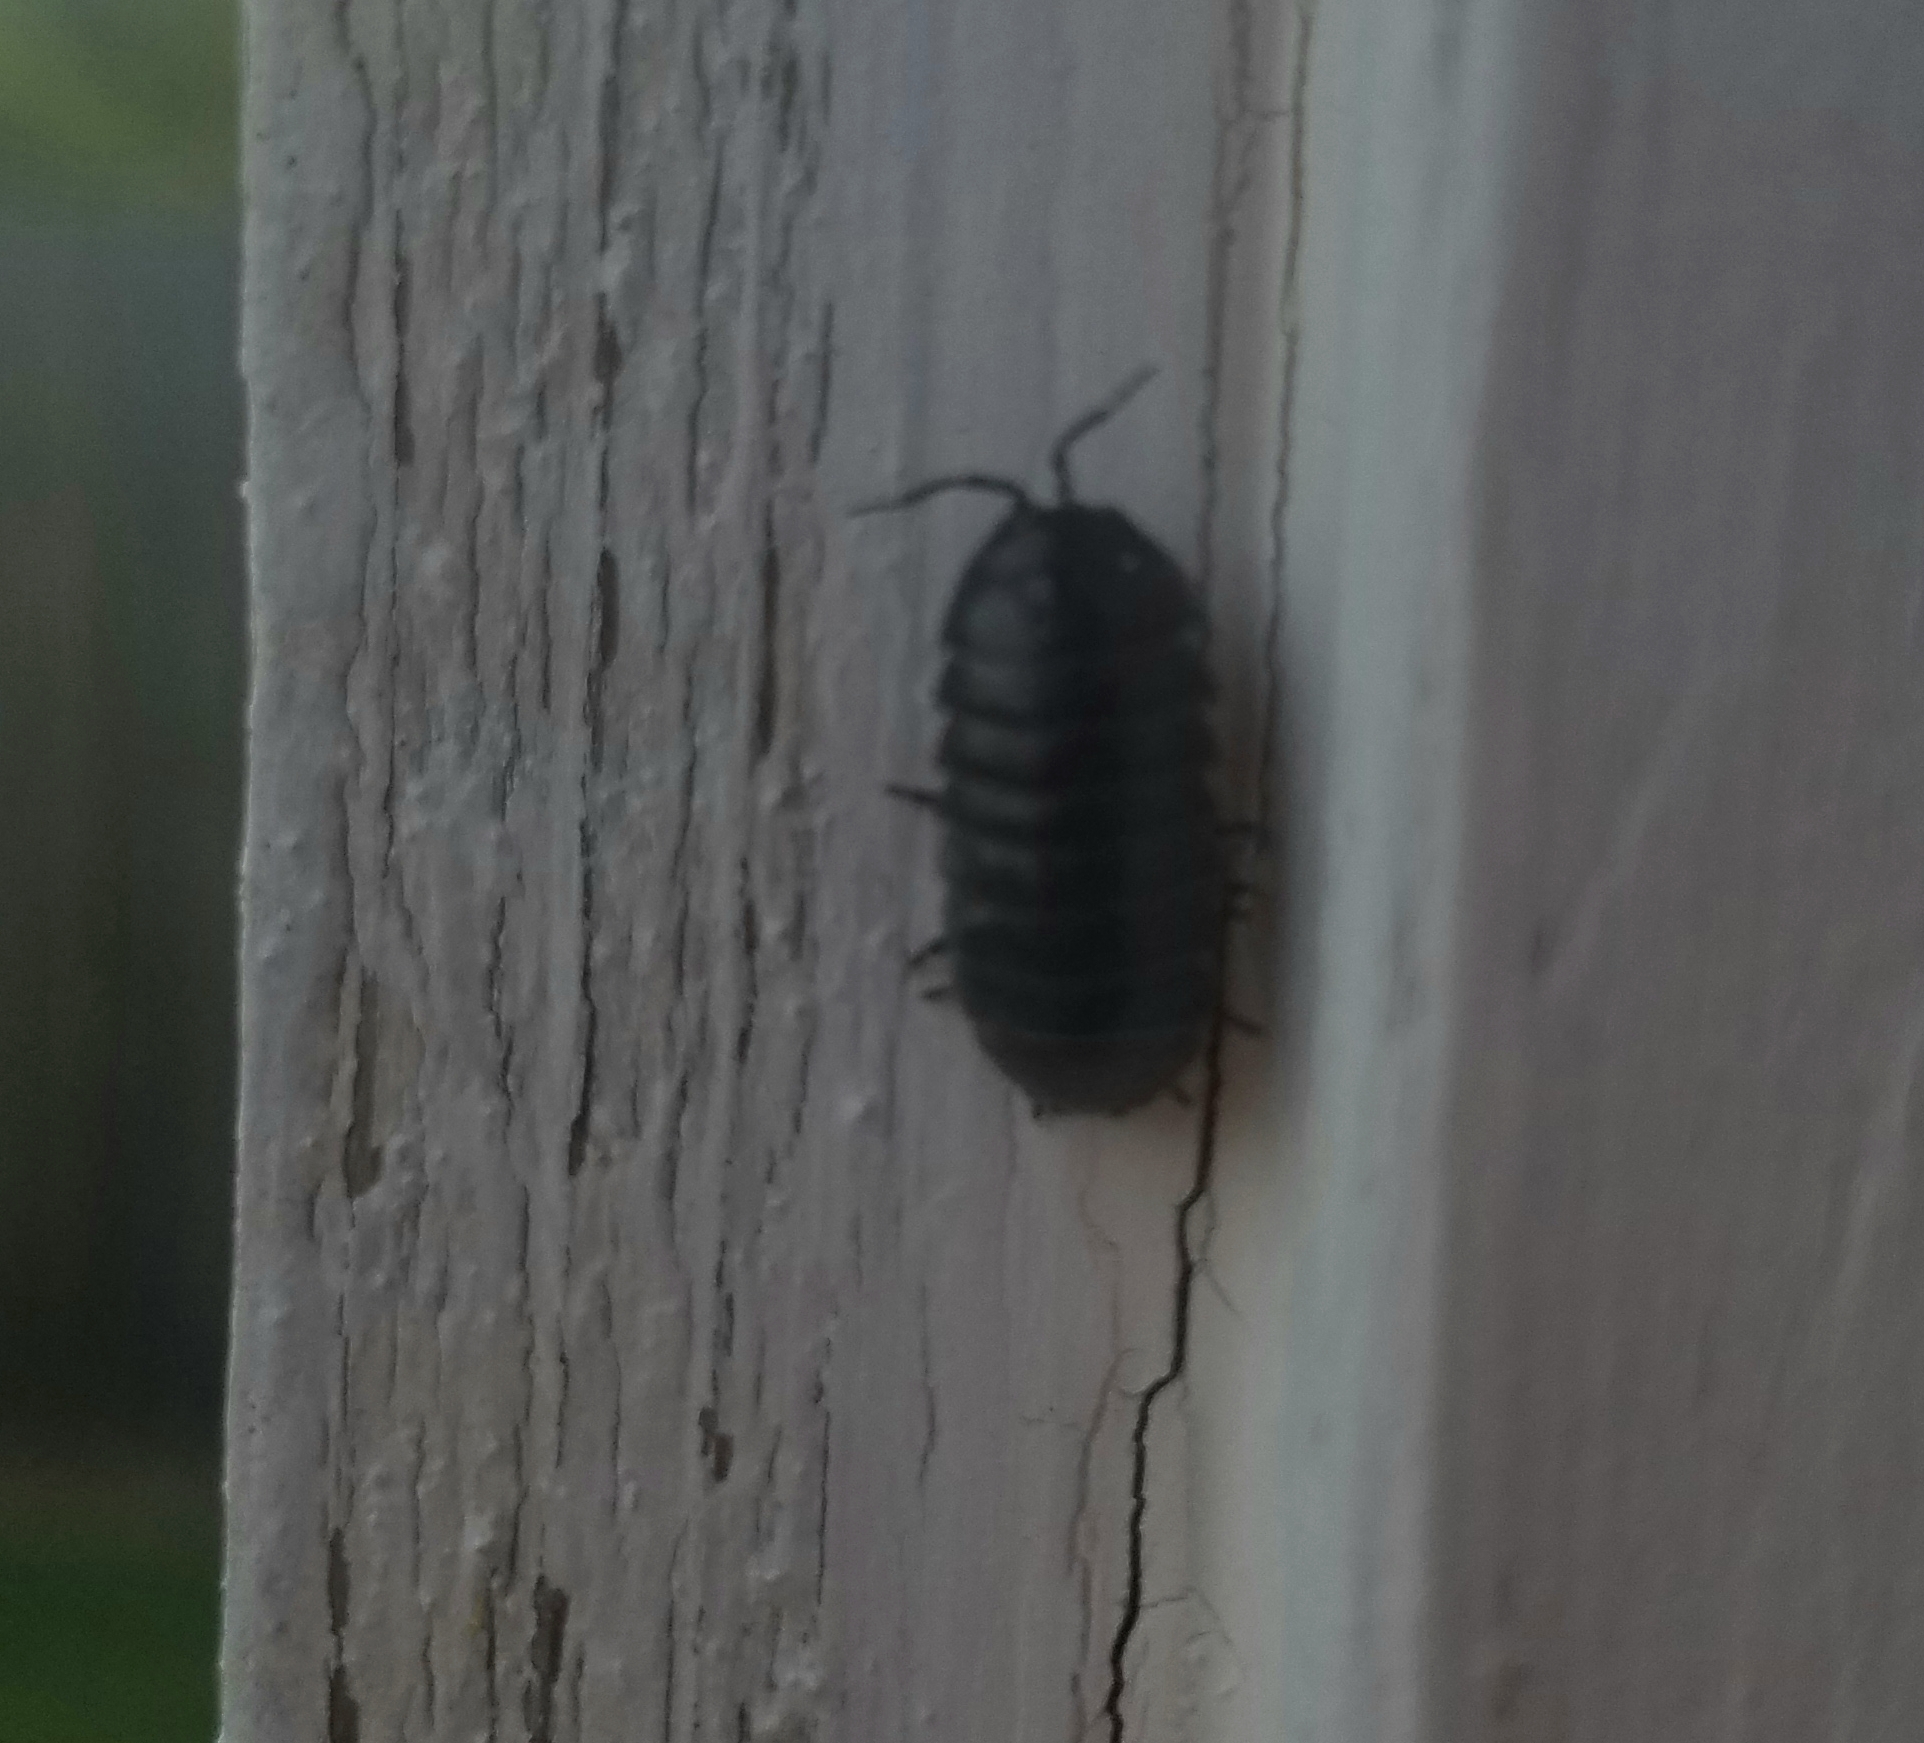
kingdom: Animalia
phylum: Arthropoda
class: Malacostraca
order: Isopoda
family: Armadillidiidae
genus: Armadillidium
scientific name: Armadillidium vulgare
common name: Common pill woodlouse
